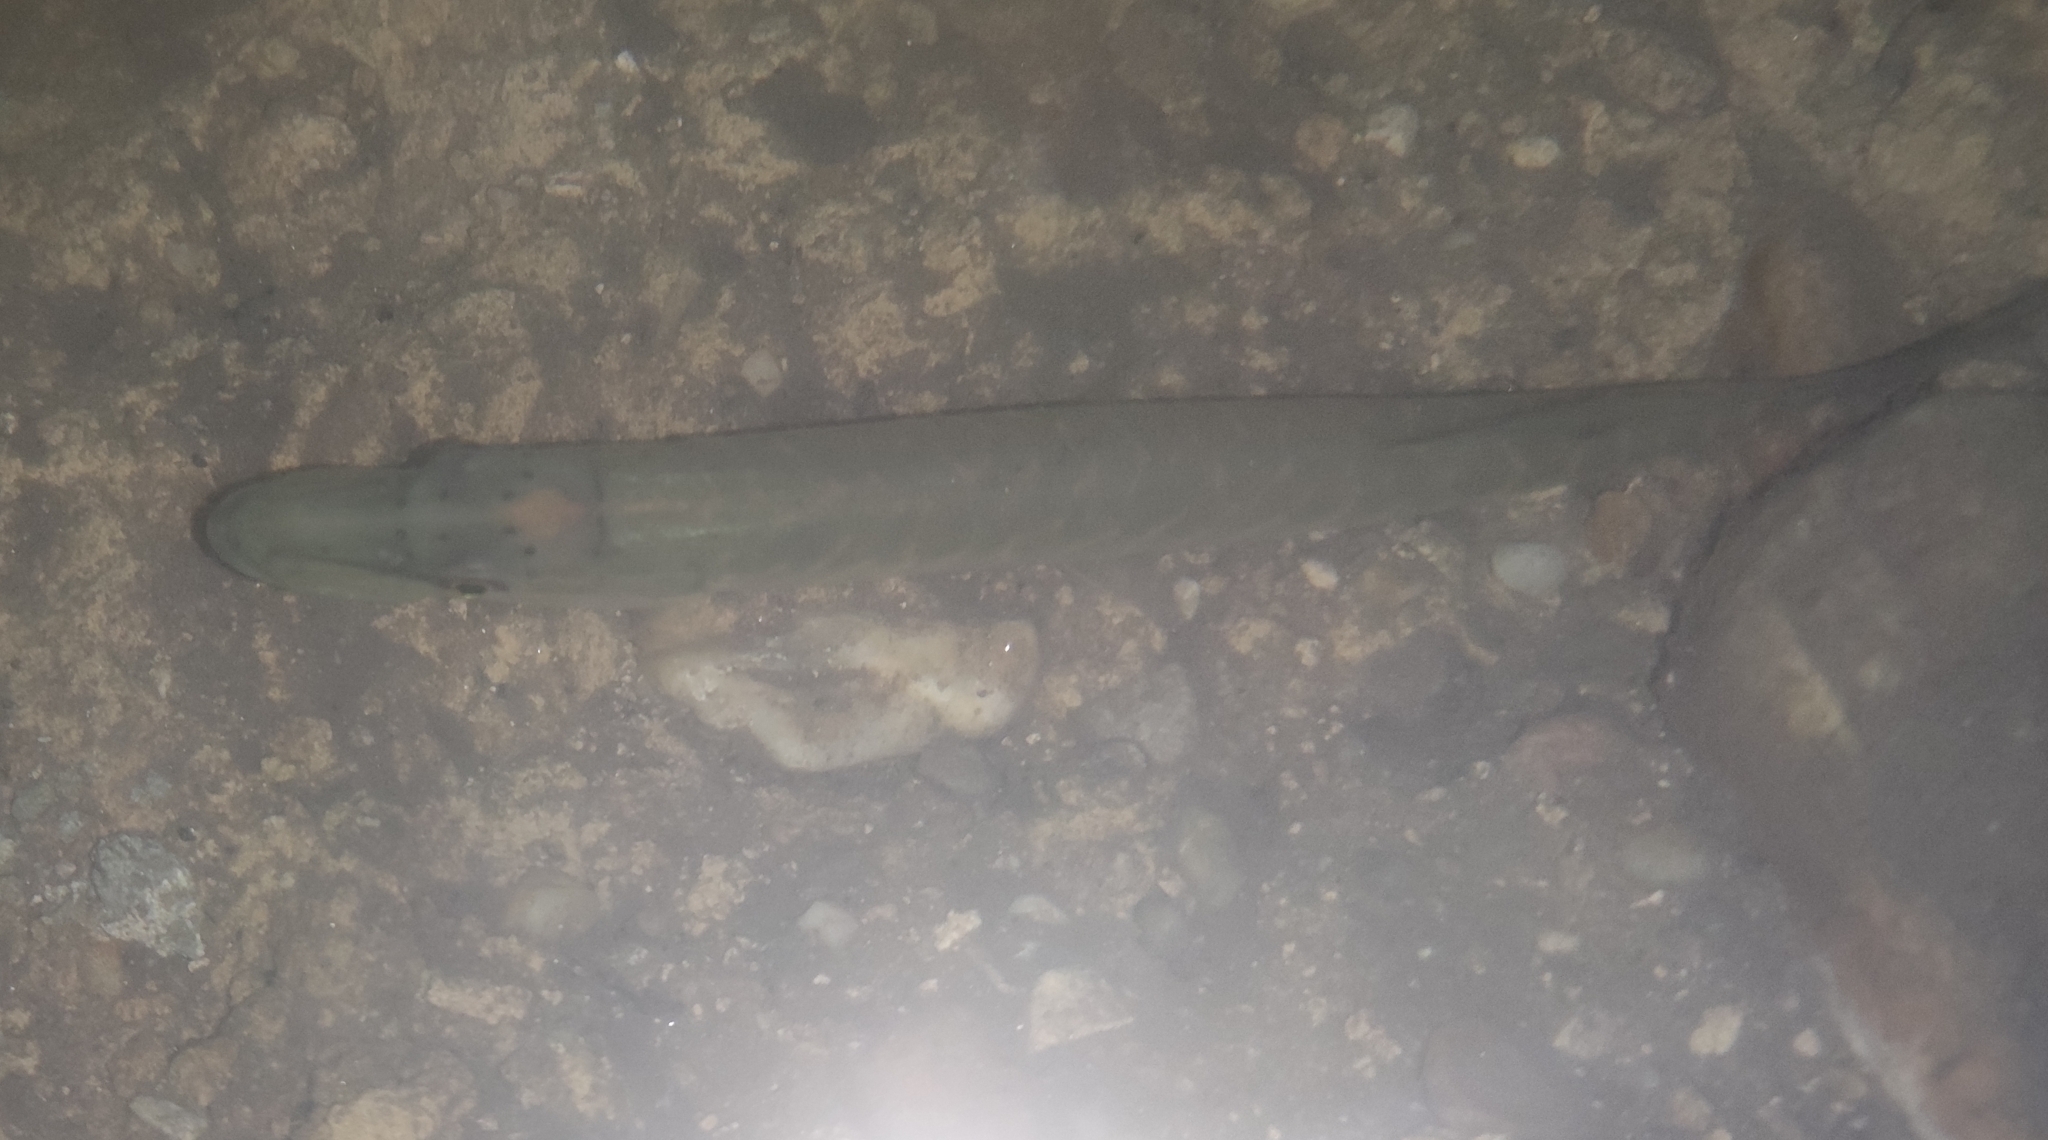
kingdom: Animalia
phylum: Chordata
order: Esociformes
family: Esocidae
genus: Esox
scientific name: Esox lucius
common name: Northern pike
